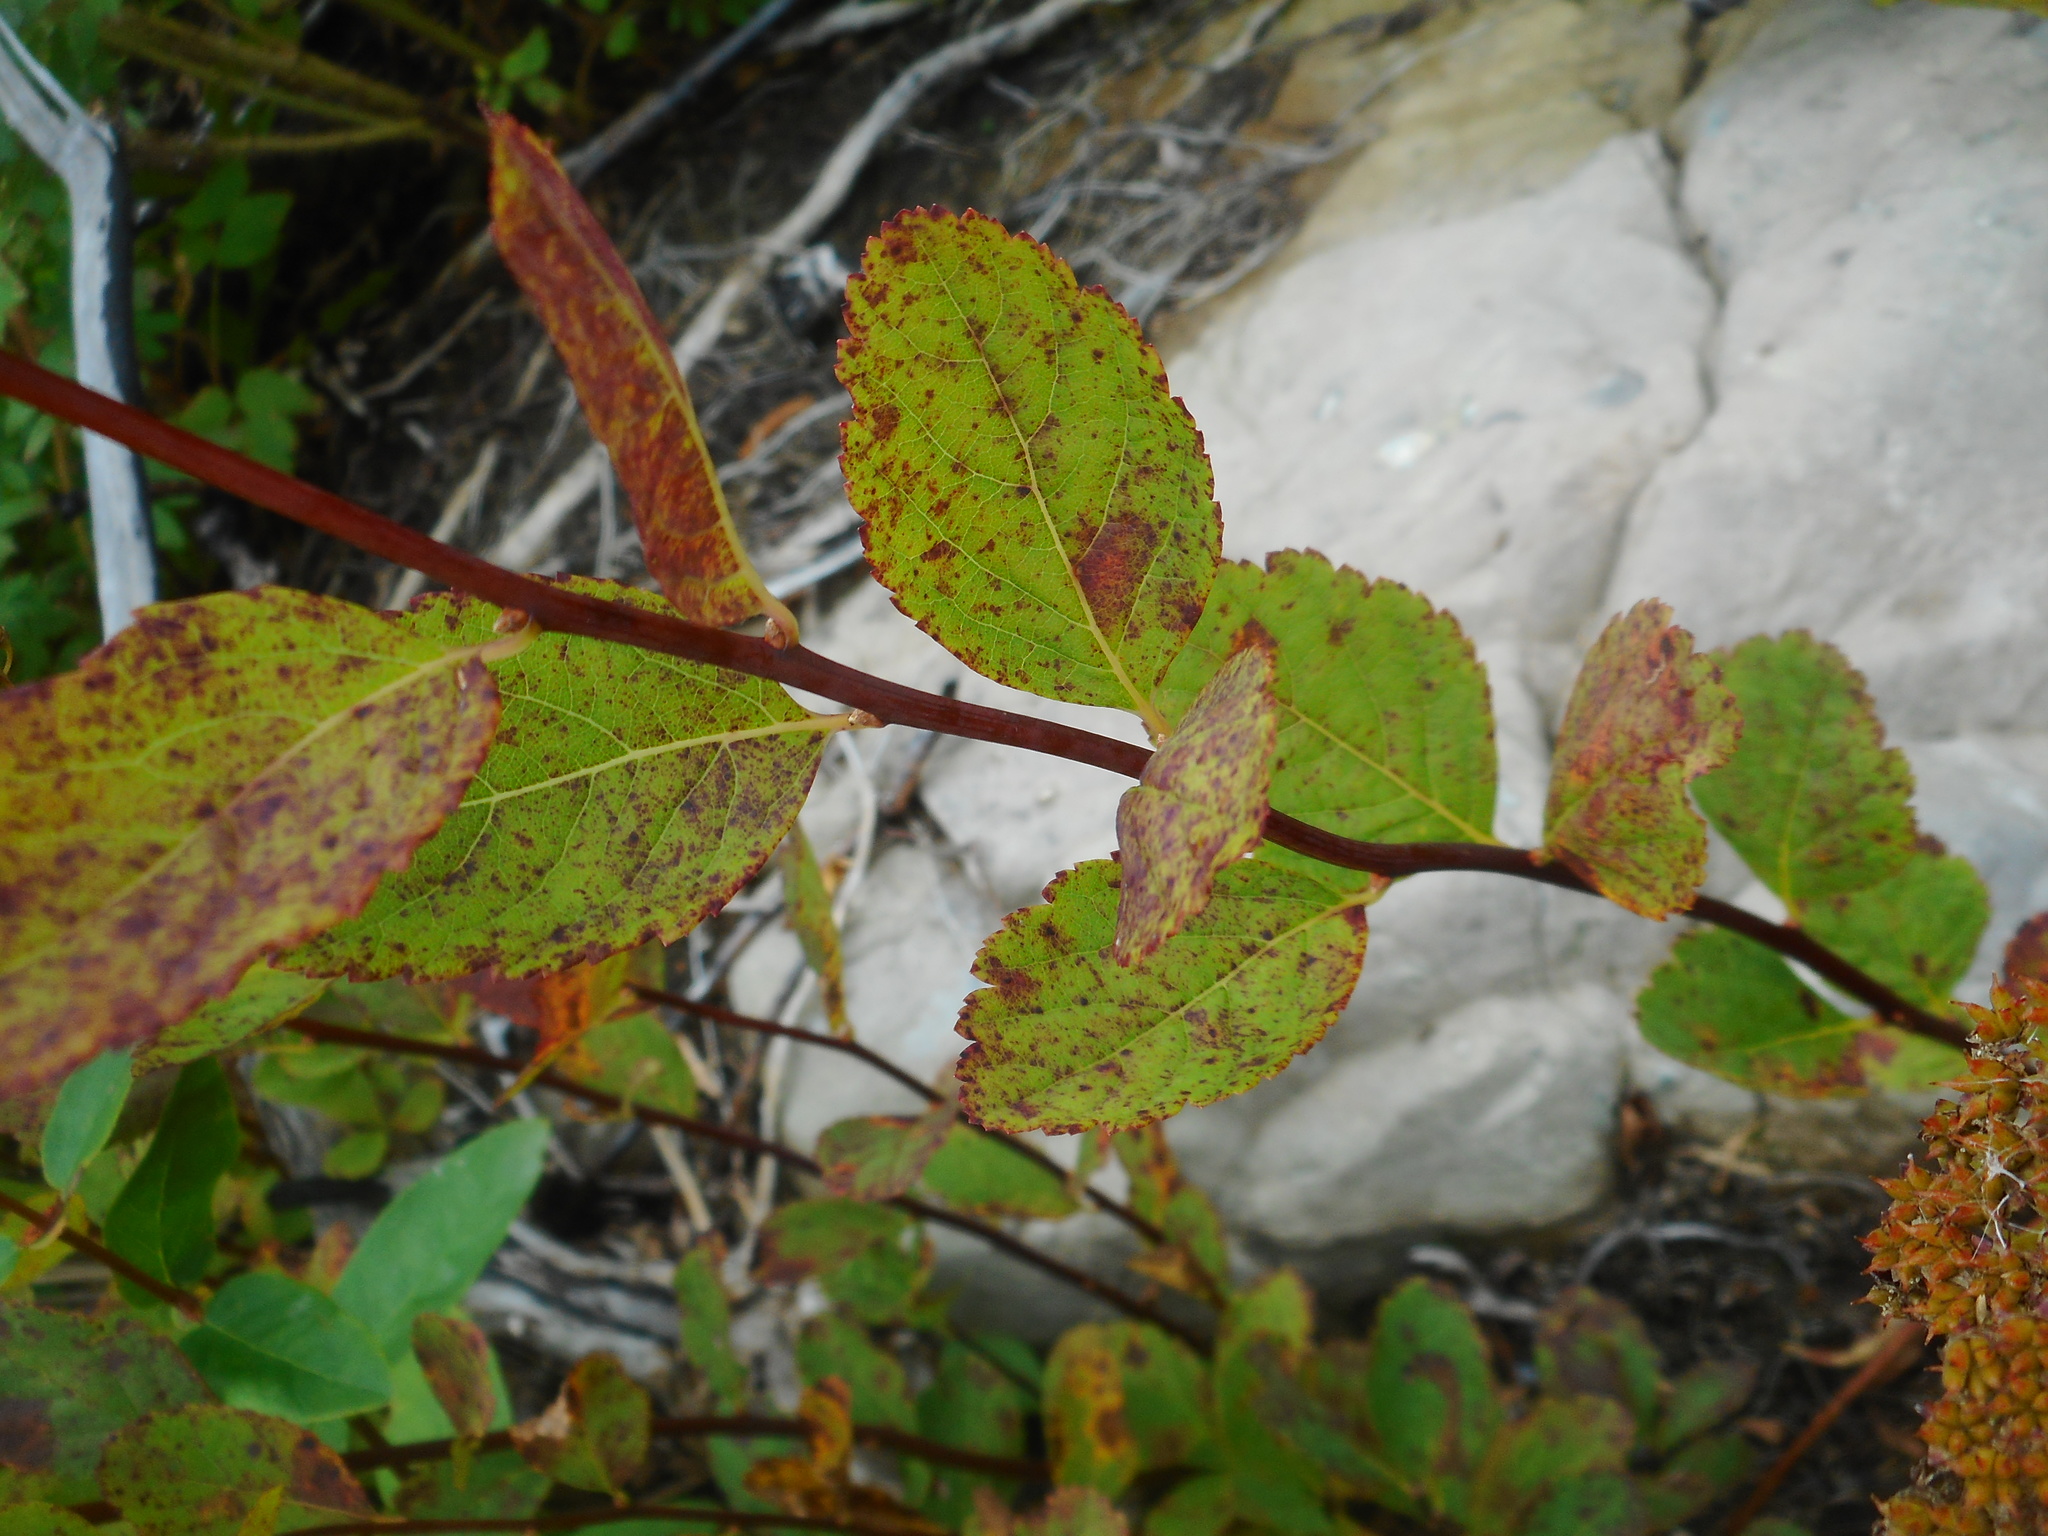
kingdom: Plantae
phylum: Tracheophyta
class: Magnoliopsida
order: Rosales
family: Rosaceae
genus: Spiraea
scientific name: Spiraea betulifolia
